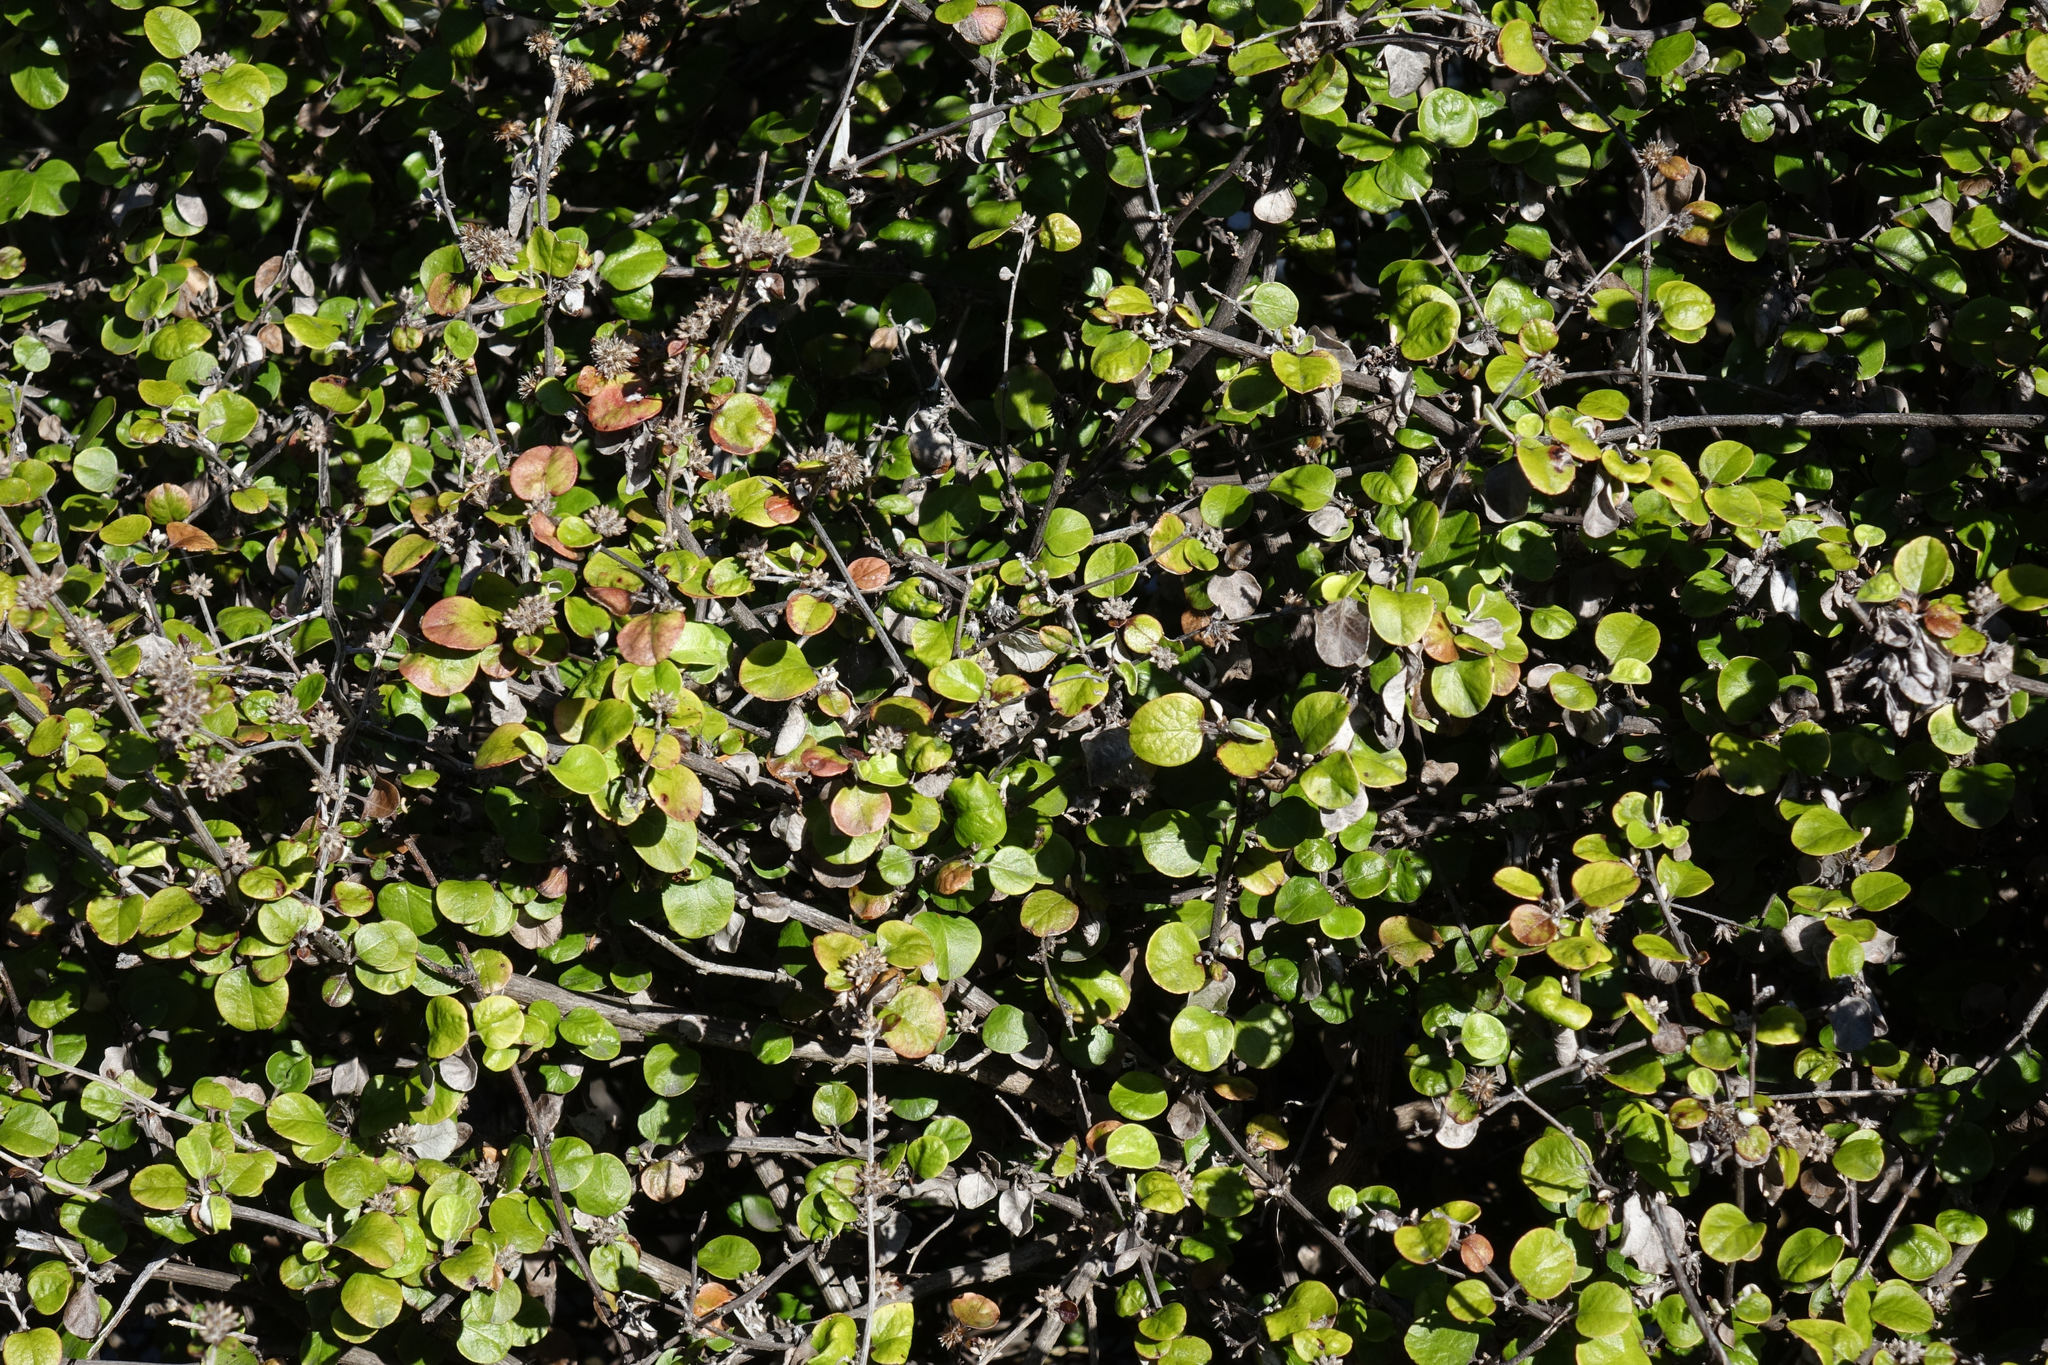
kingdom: Plantae
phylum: Tracheophyta
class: Magnoliopsida
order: Asterales
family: Asteraceae
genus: Ozothamnus
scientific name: Ozothamnus glomeratus
